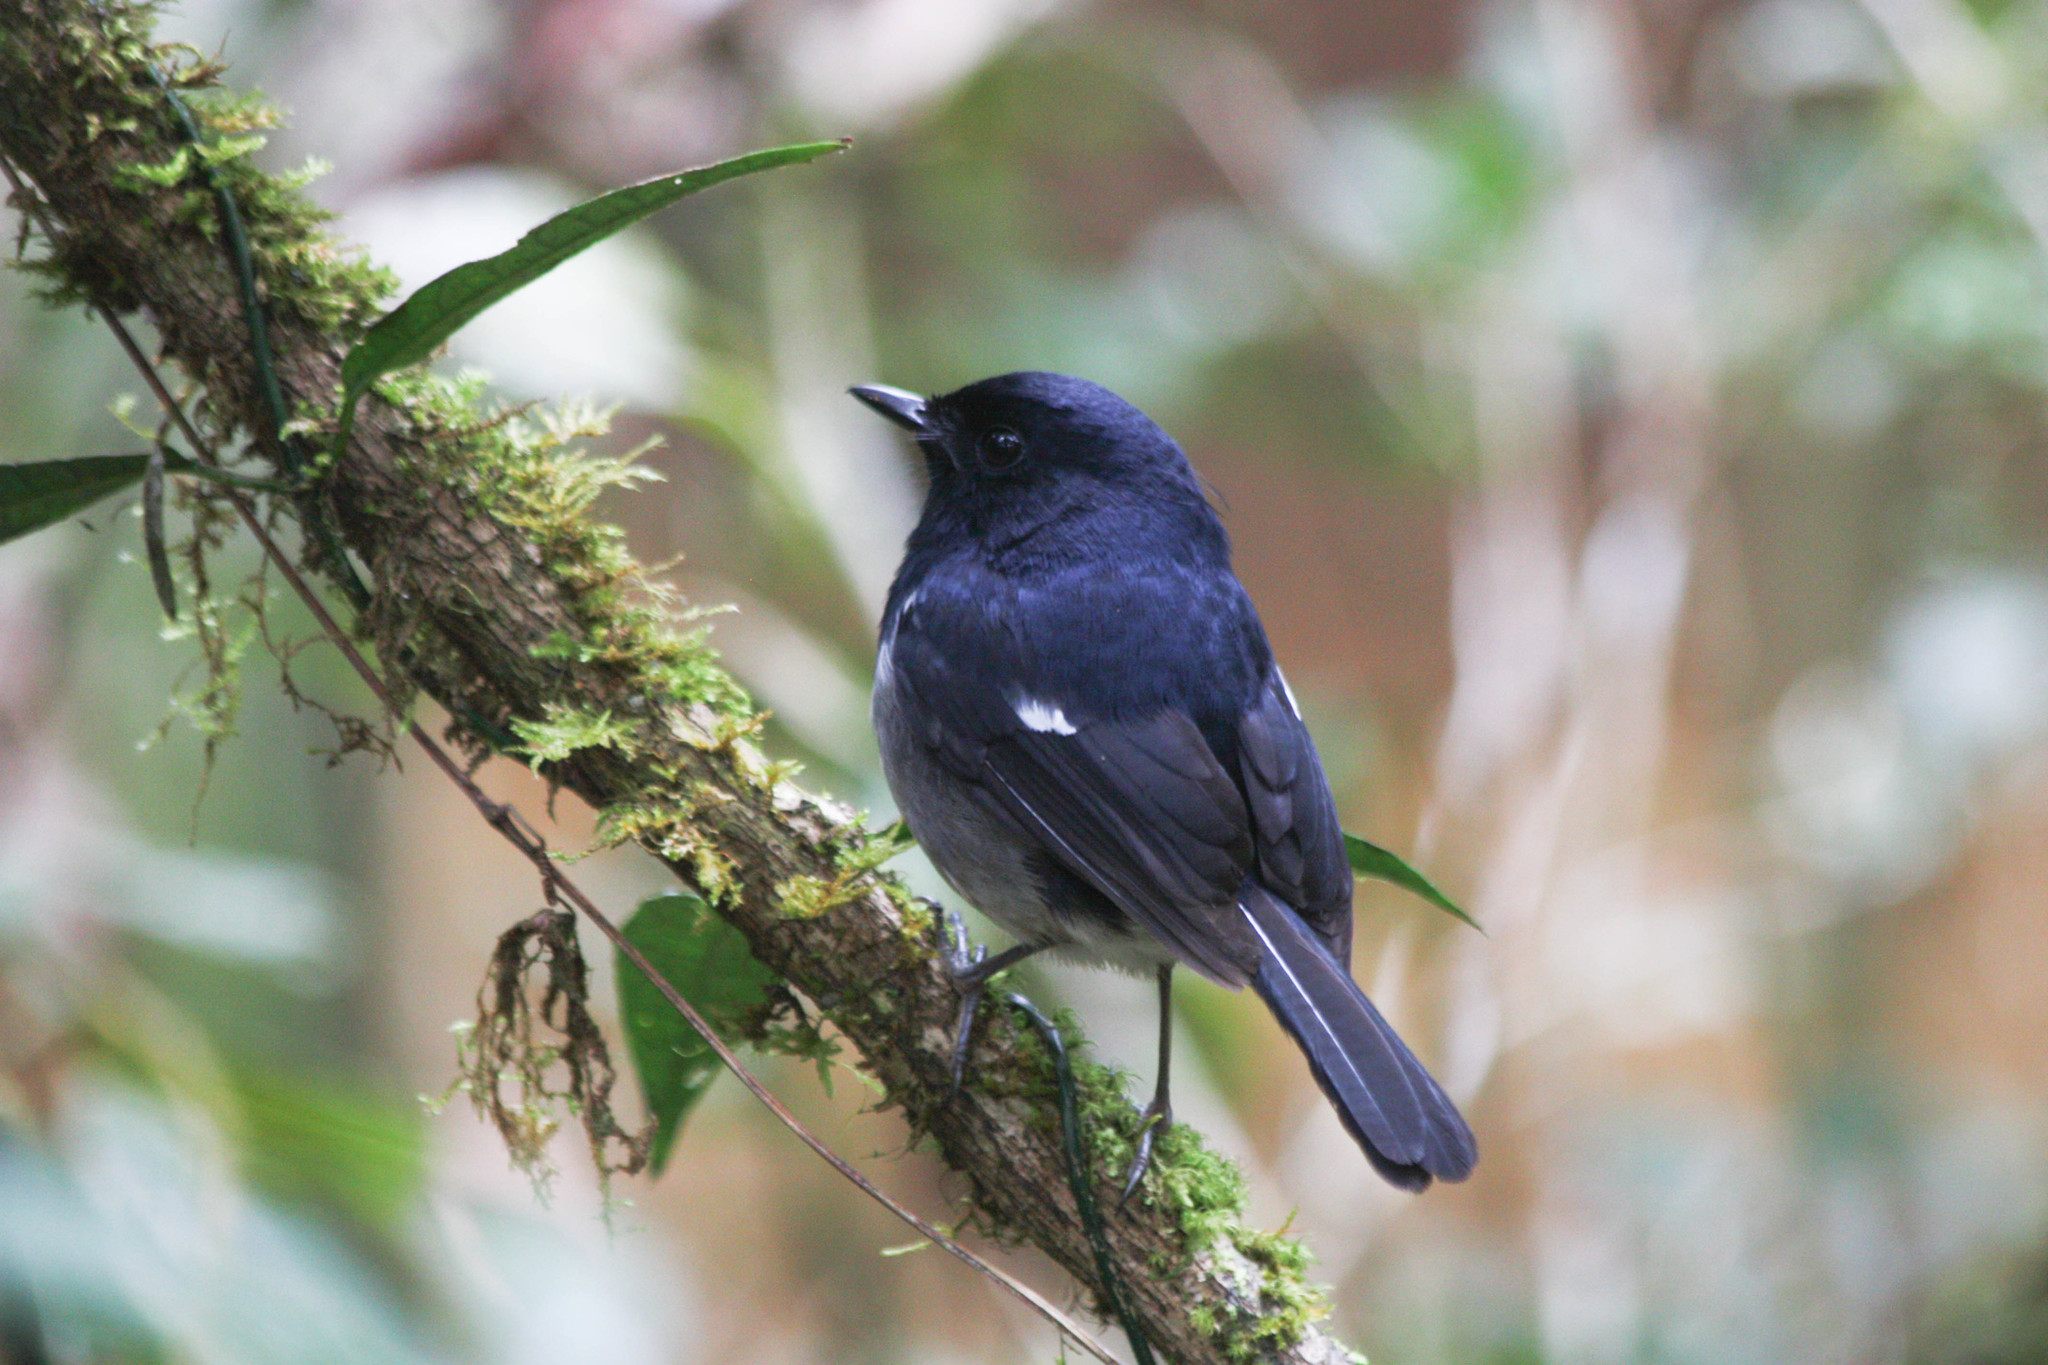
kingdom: Animalia
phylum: Chordata
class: Aves
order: Passeriformes
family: Muscicapidae
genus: Copsychus
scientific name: Copsychus albospecularis
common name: Madagascar magpie-robin
